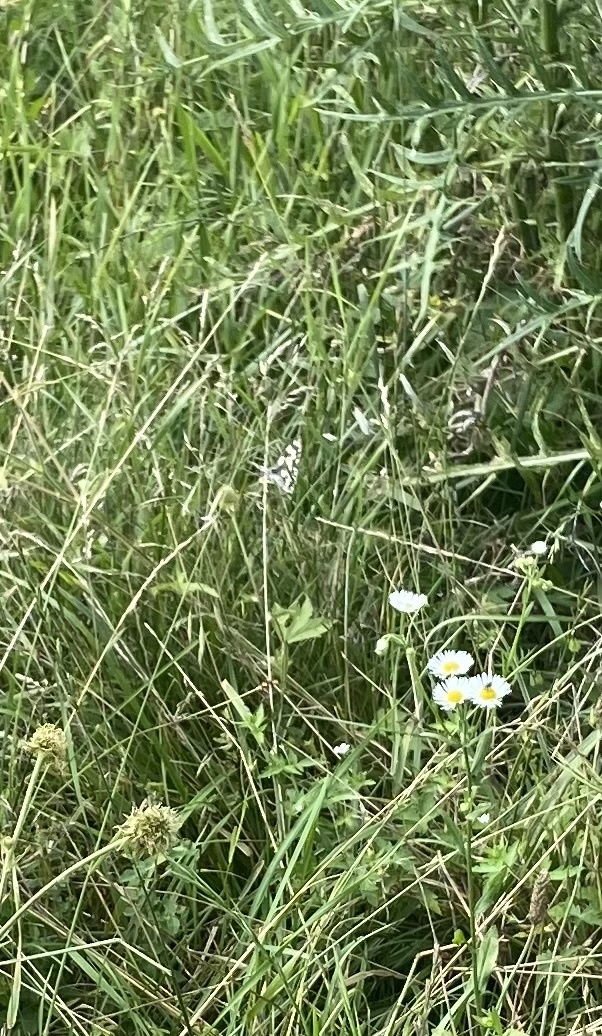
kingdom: Animalia
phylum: Arthropoda
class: Insecta
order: Lepidoptera
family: Nymphalidae
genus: Melanargia
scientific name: Melanargia galathea
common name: Marbled white
